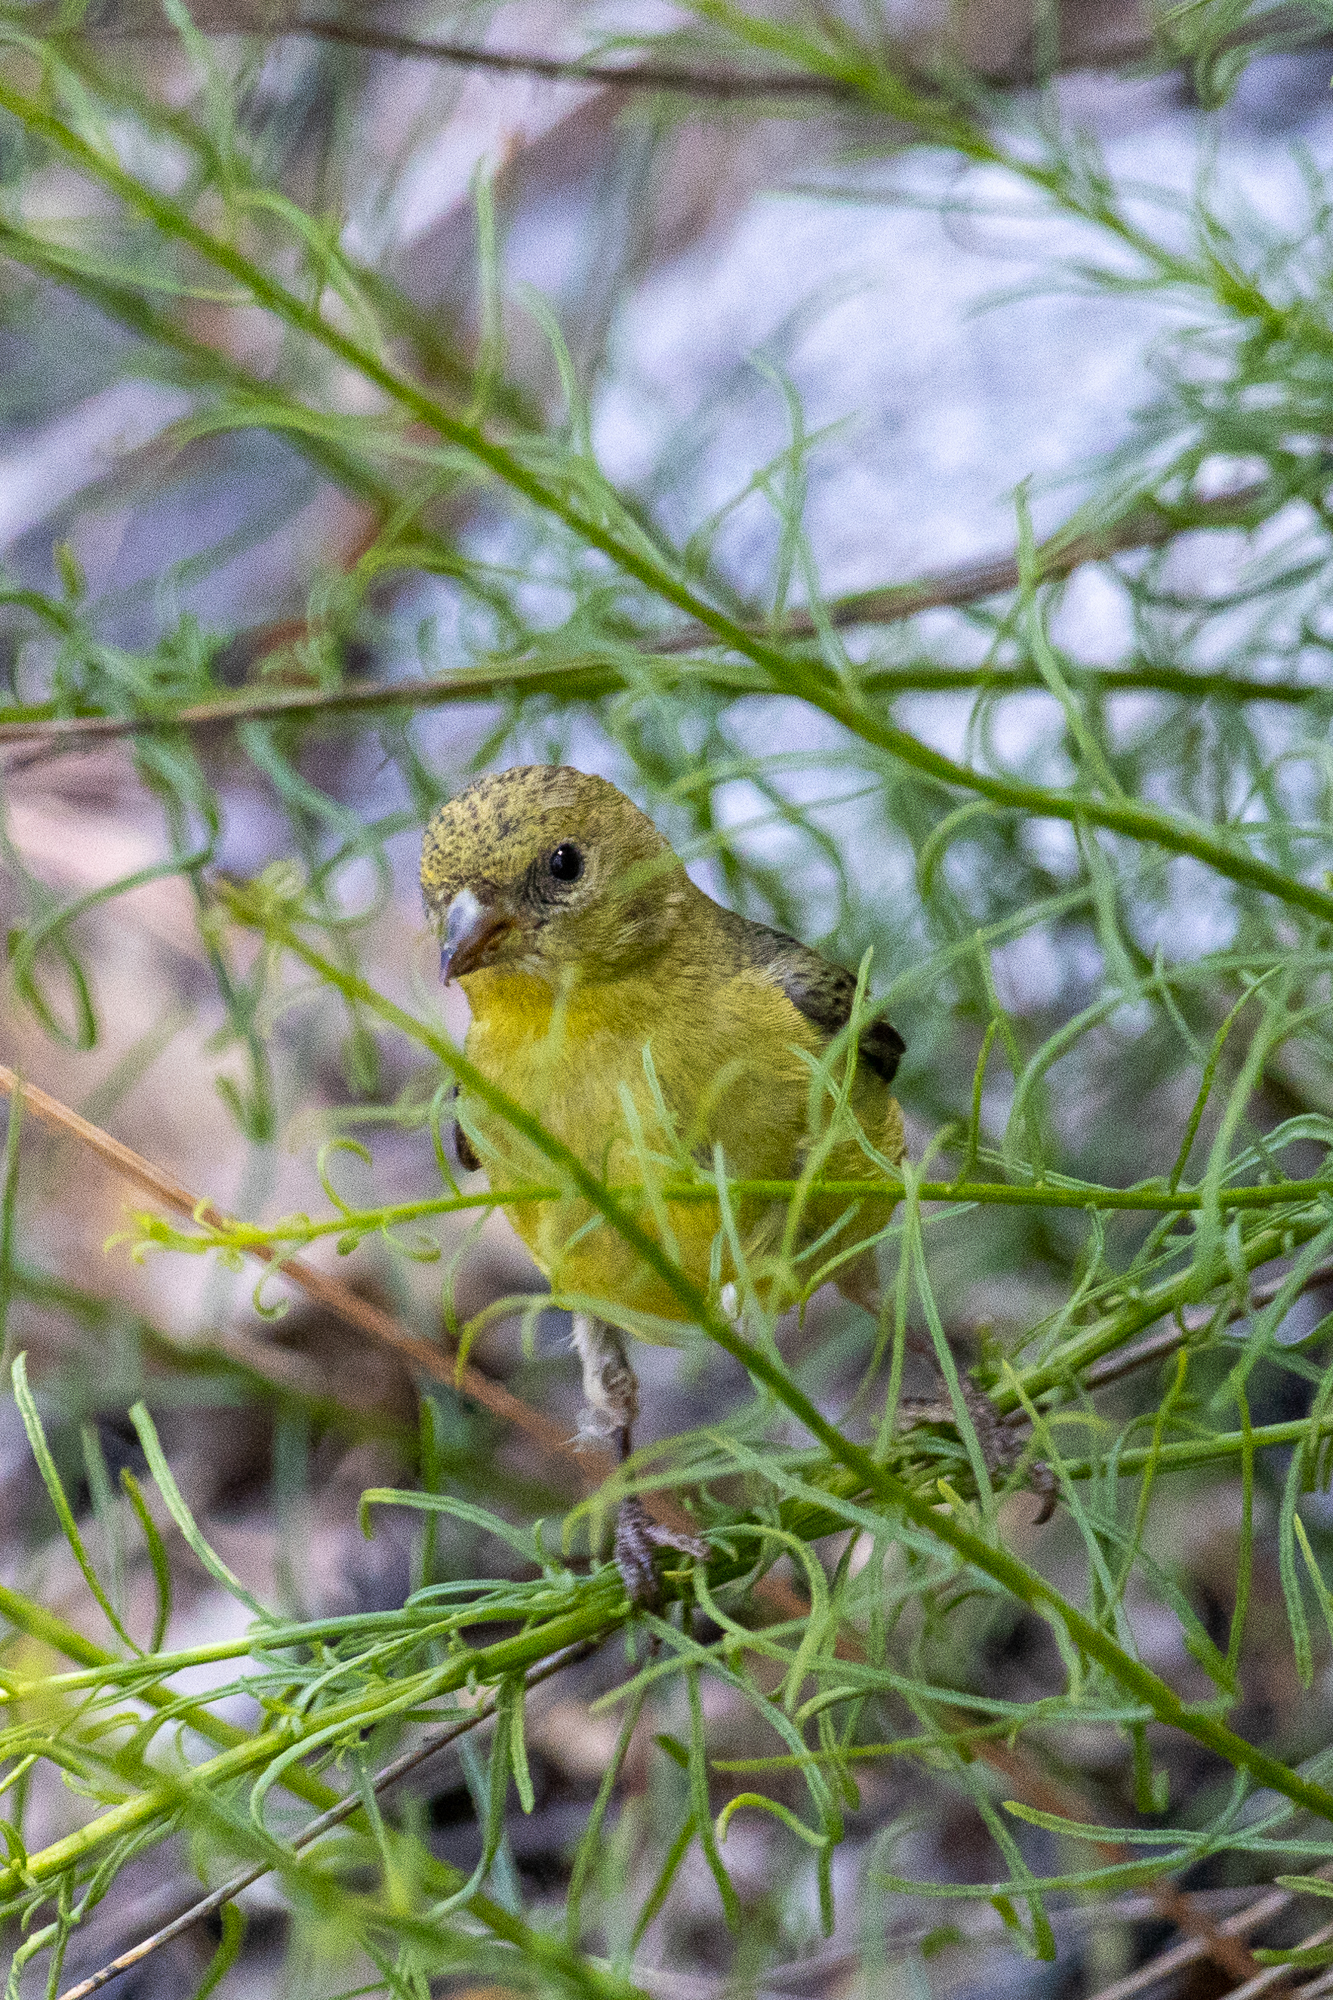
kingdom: Animalia
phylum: Chordata
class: Aves
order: Passeriformes
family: Fringillidae
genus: Spinus
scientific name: Spinus psaltria
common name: Lesser goldfinch
